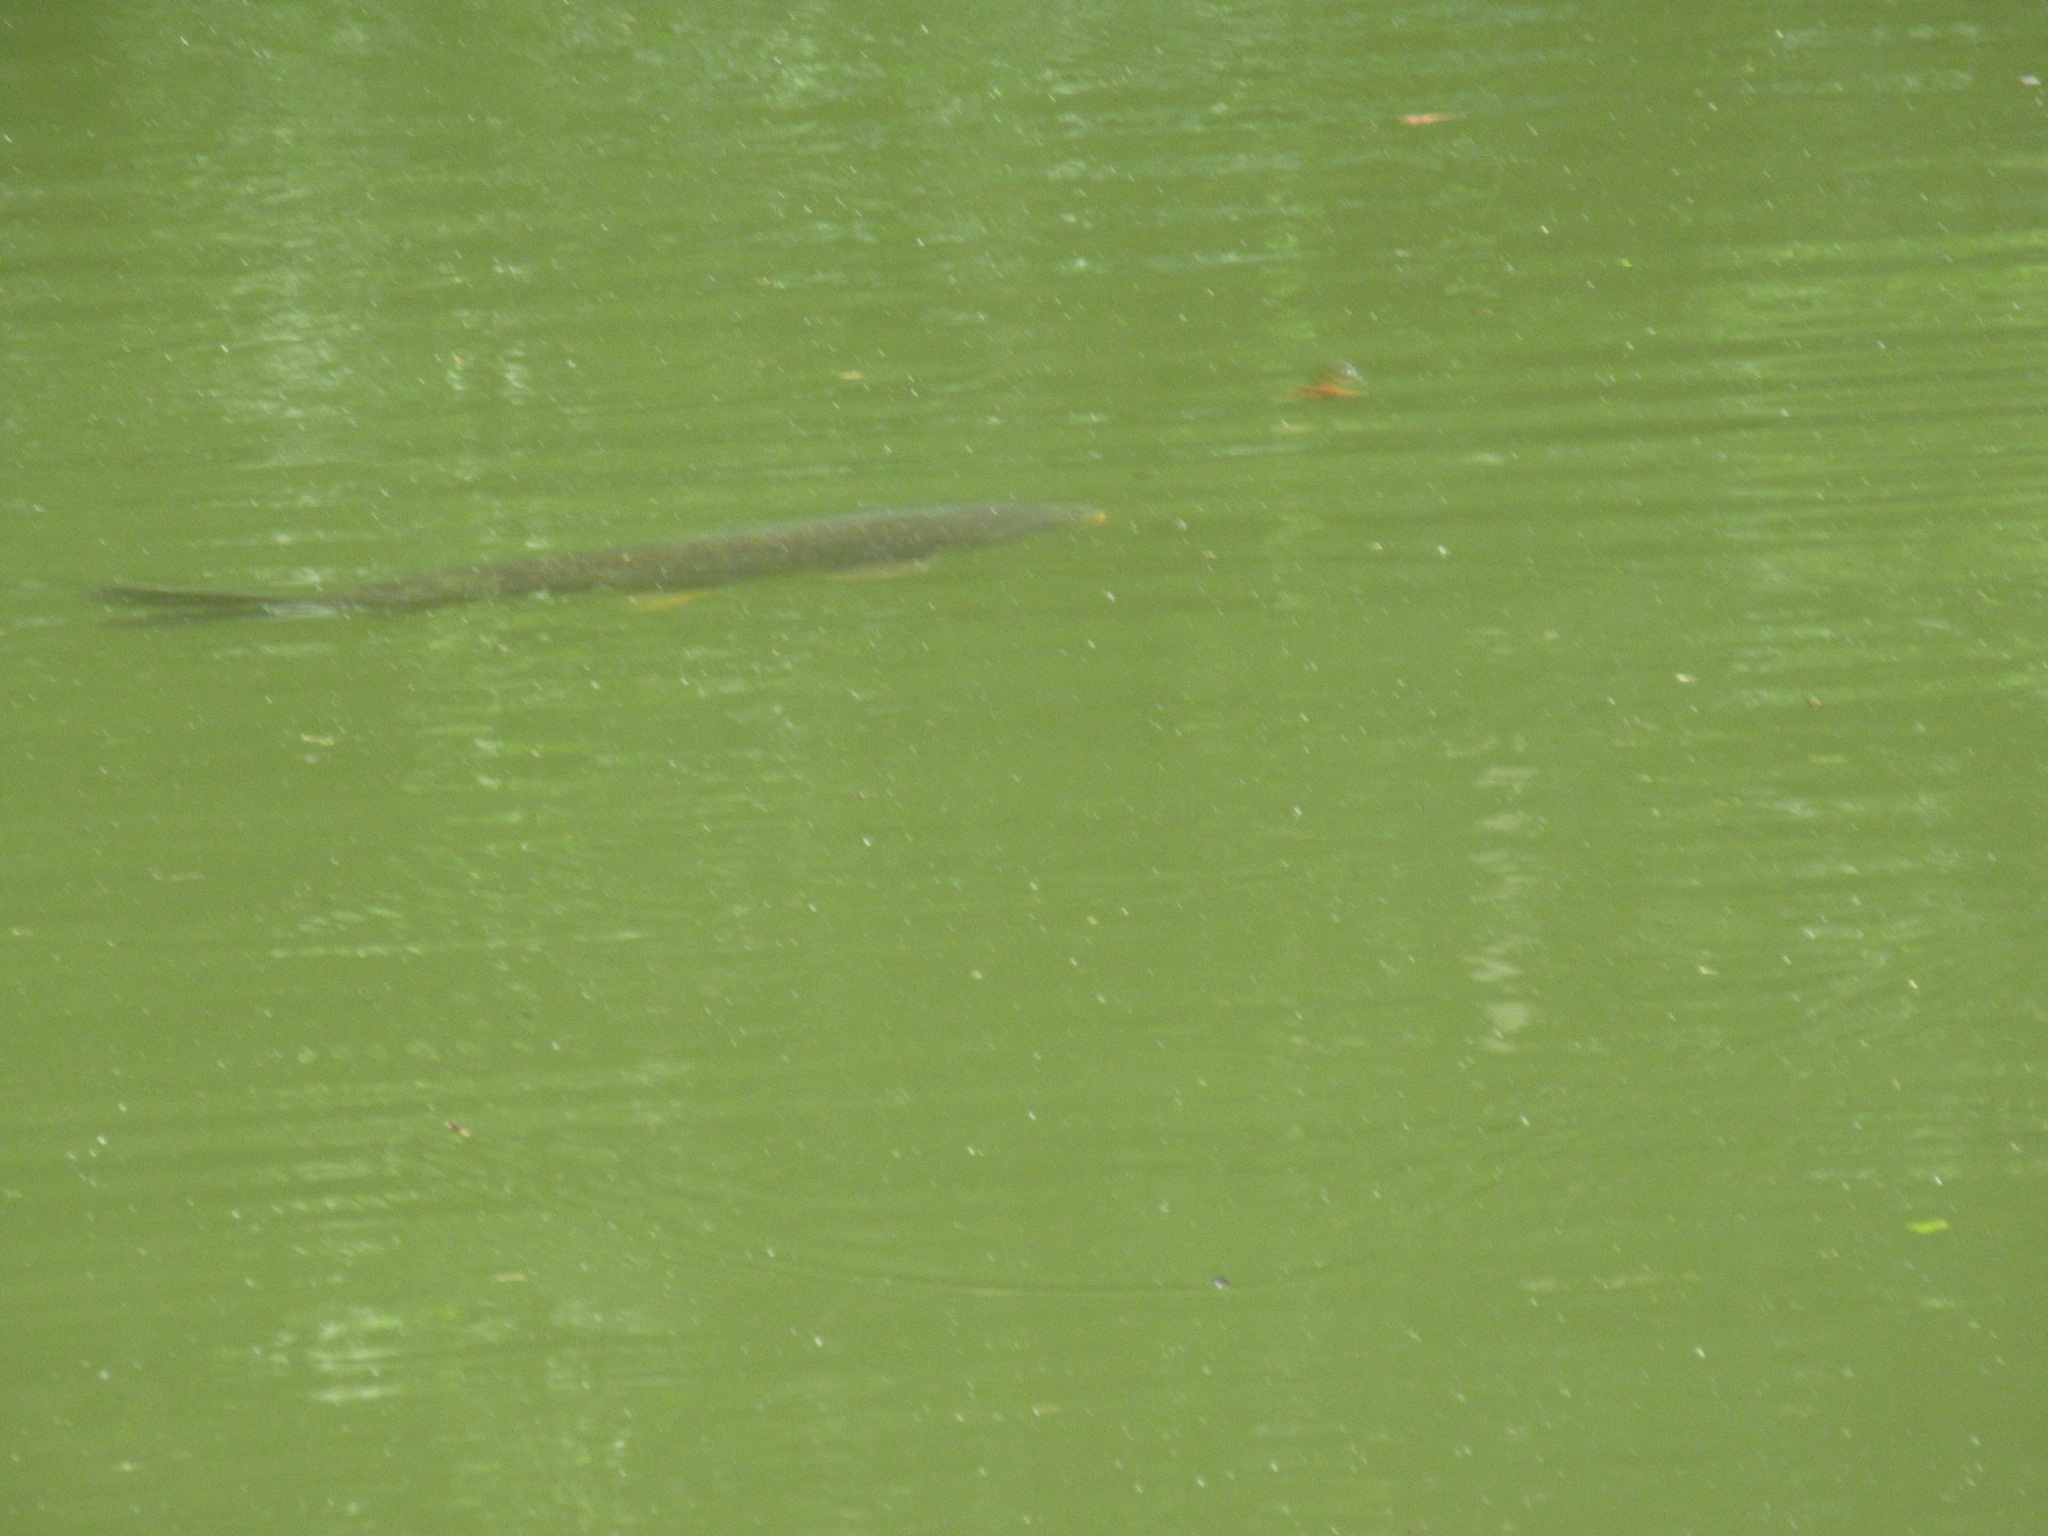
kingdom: Animalia
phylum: Chordata
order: Cypriniformes
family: Cyprinidae
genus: Cyprinus
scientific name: Cyprinus carpio
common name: Common carp
